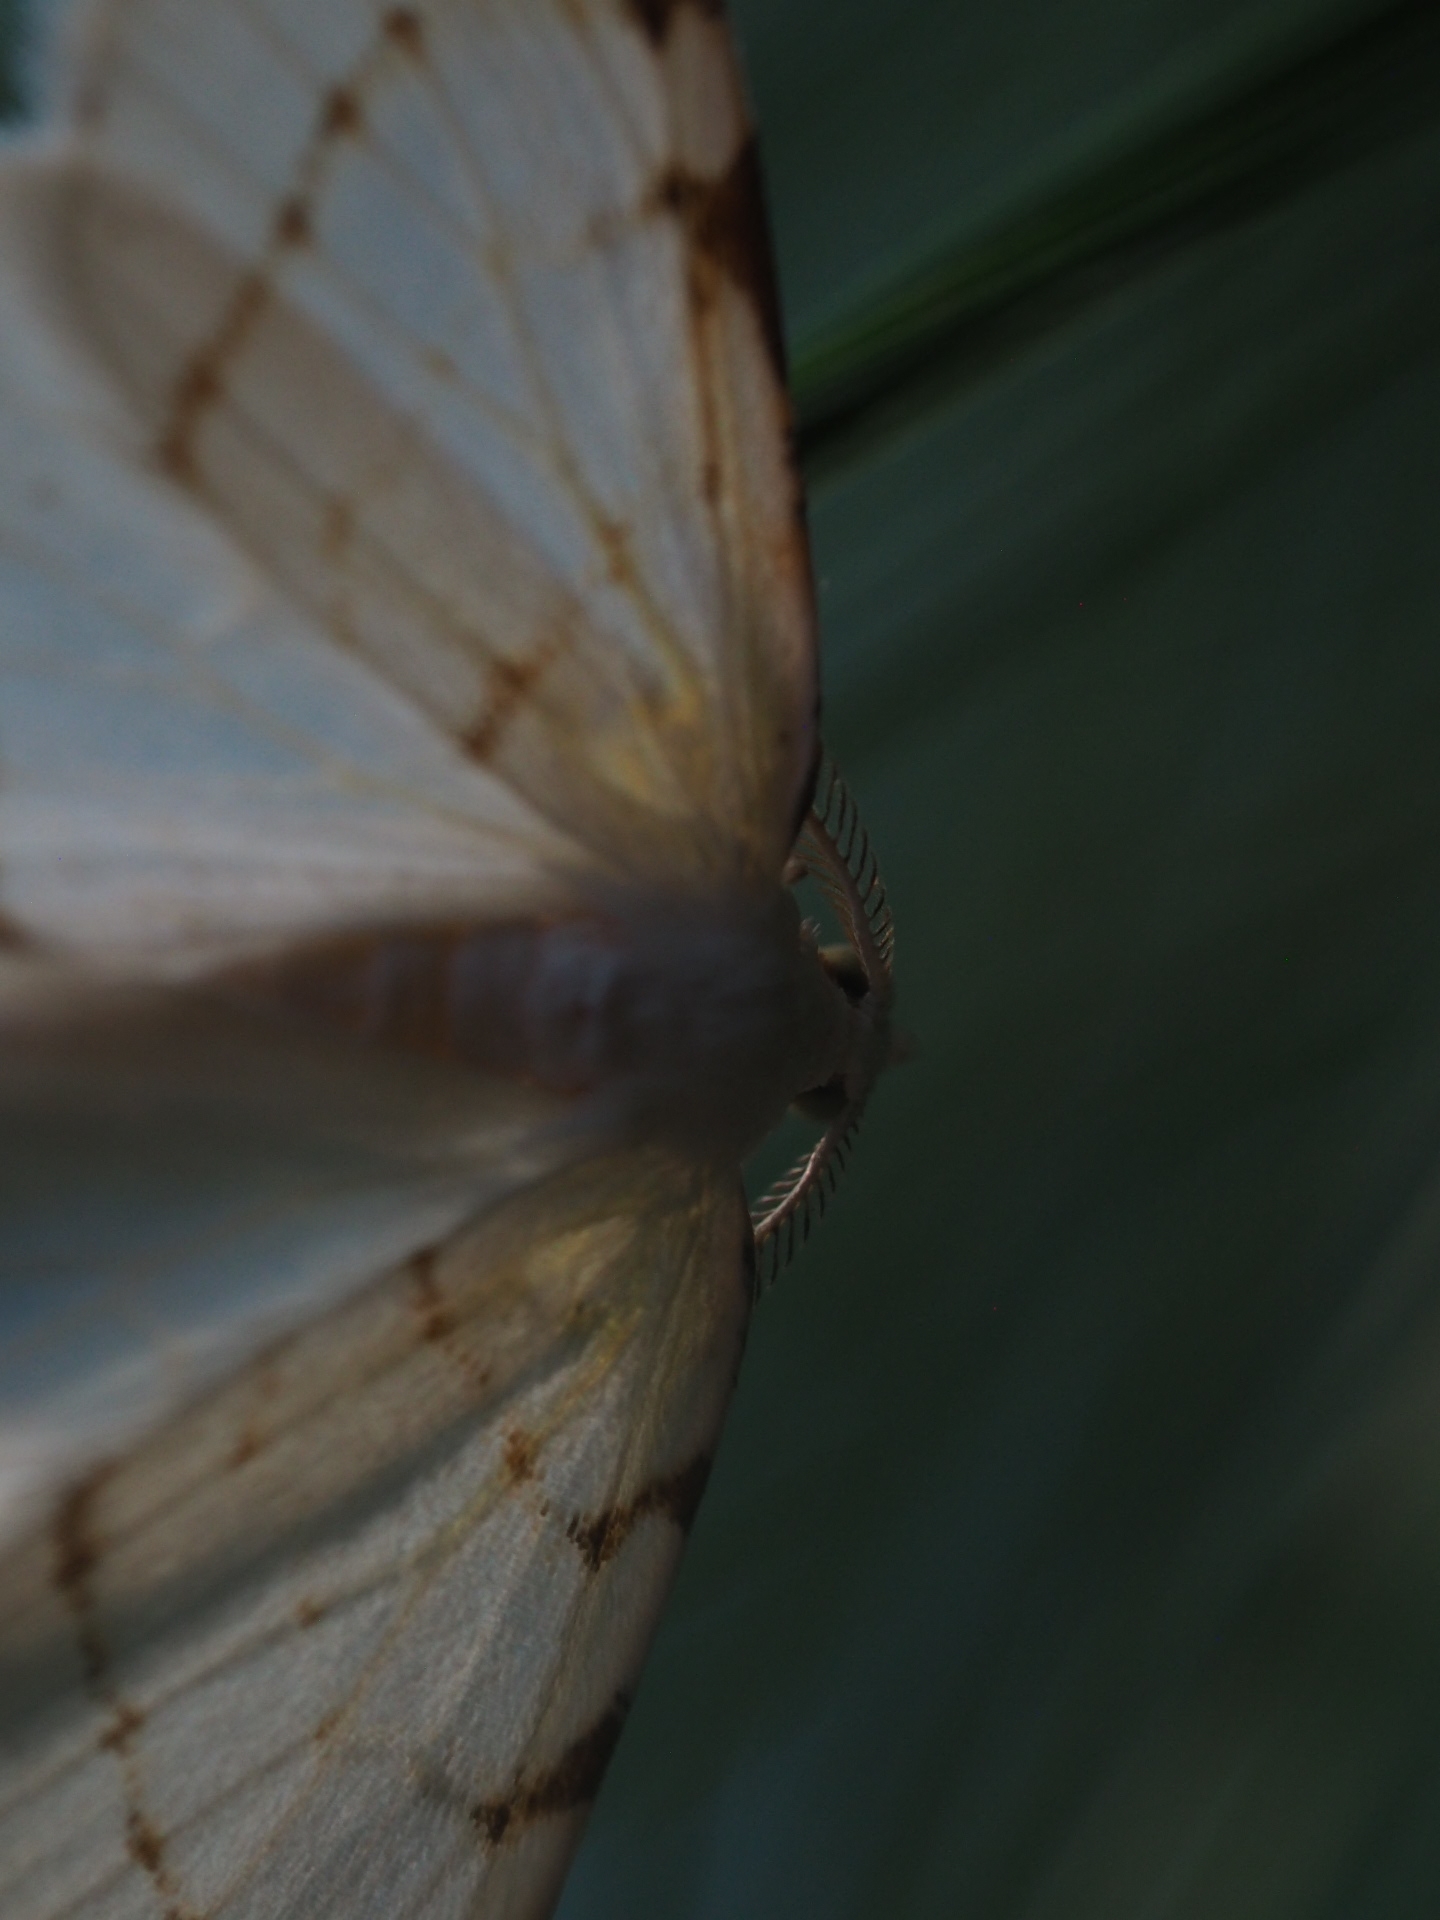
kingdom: Animalia
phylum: Arthropoda
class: Insecta
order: Lepidoptera
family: Geometridae
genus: Macaria
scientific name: Macaria pustularia
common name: Lesser maple spanworm moth
